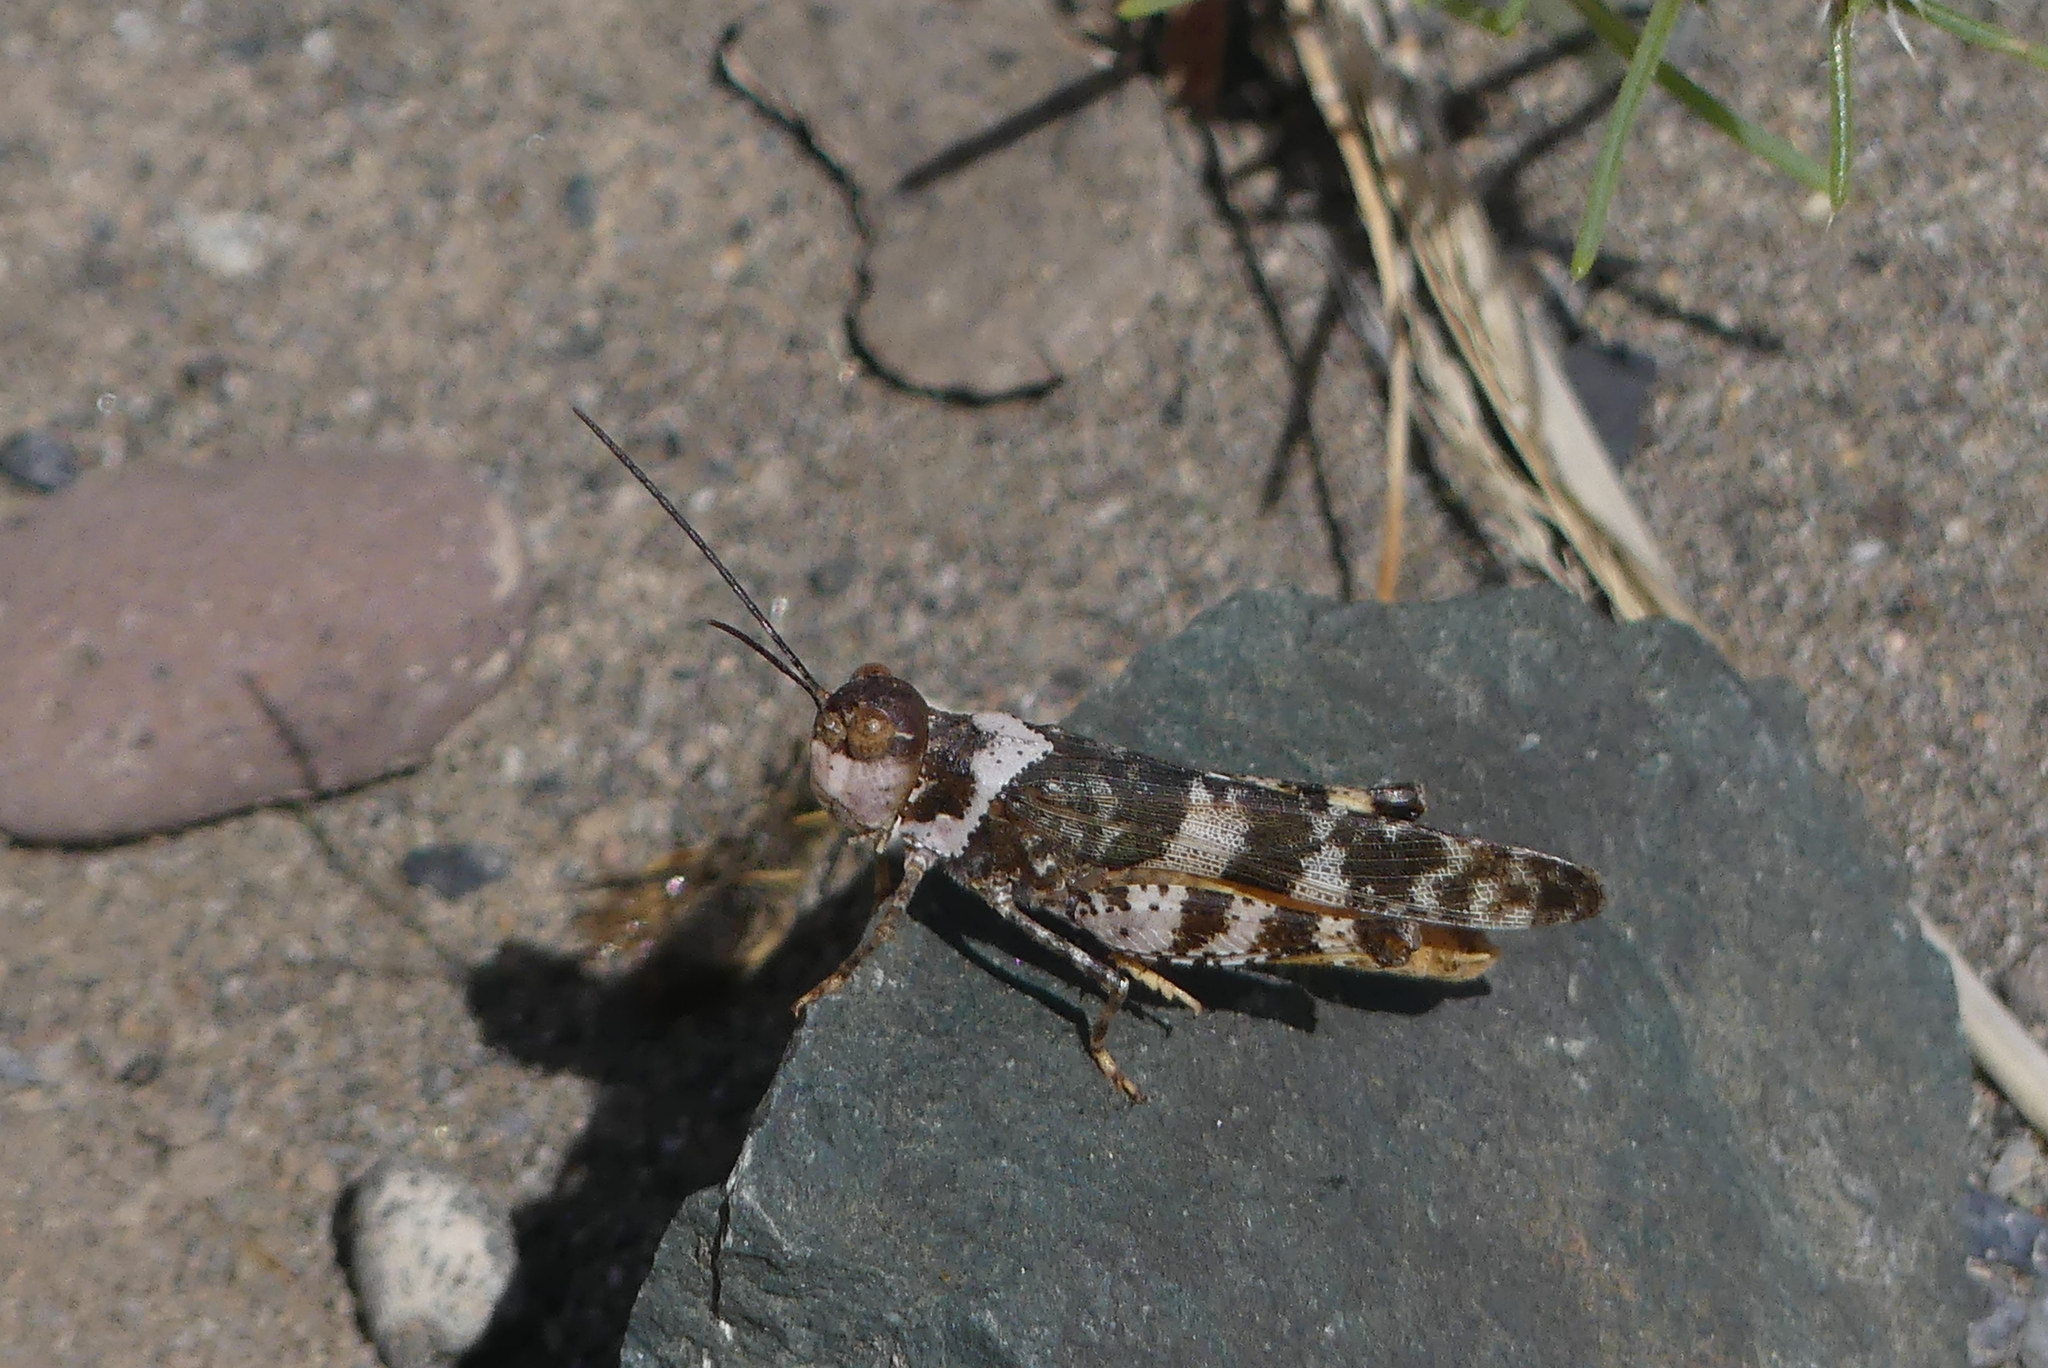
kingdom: Animalia
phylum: Arthropoda
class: Insecta
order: Orthoptera
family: Acrididae
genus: Spharagemon
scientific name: Spharagemon equale
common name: Orange-legged grasshopper
